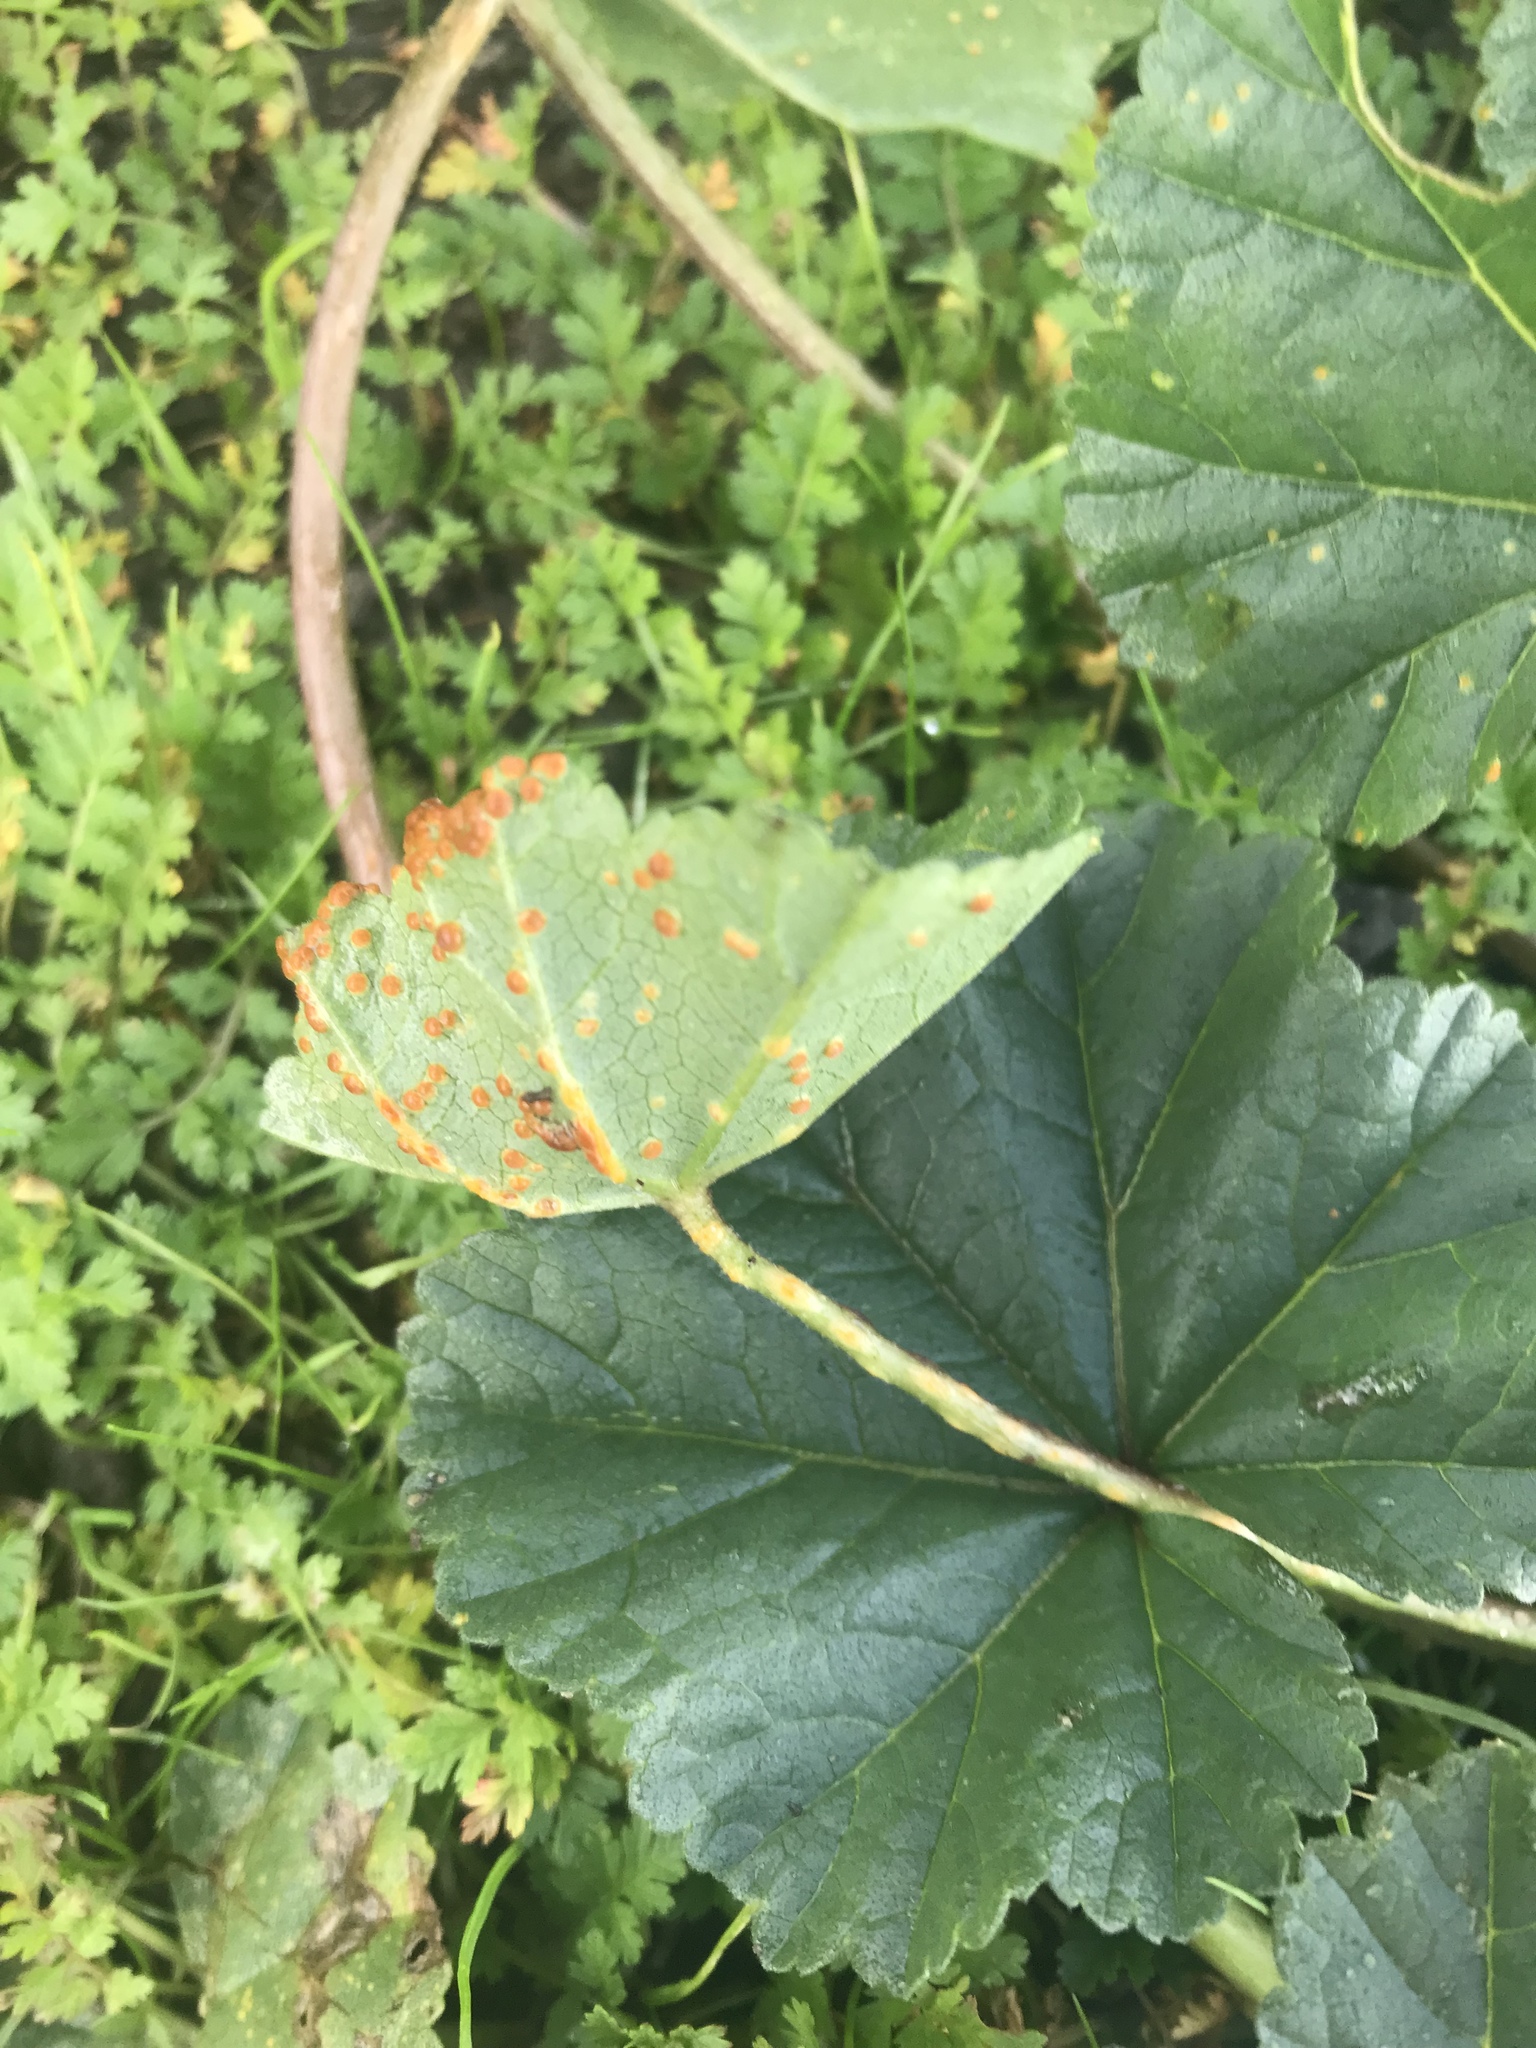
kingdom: Fungi
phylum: Basidiomycota
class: Pucciniomycetes
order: Pucciniales
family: Pucciniaceae
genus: Puccinia
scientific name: Puccinia malvacearum
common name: Hollyhock rust
